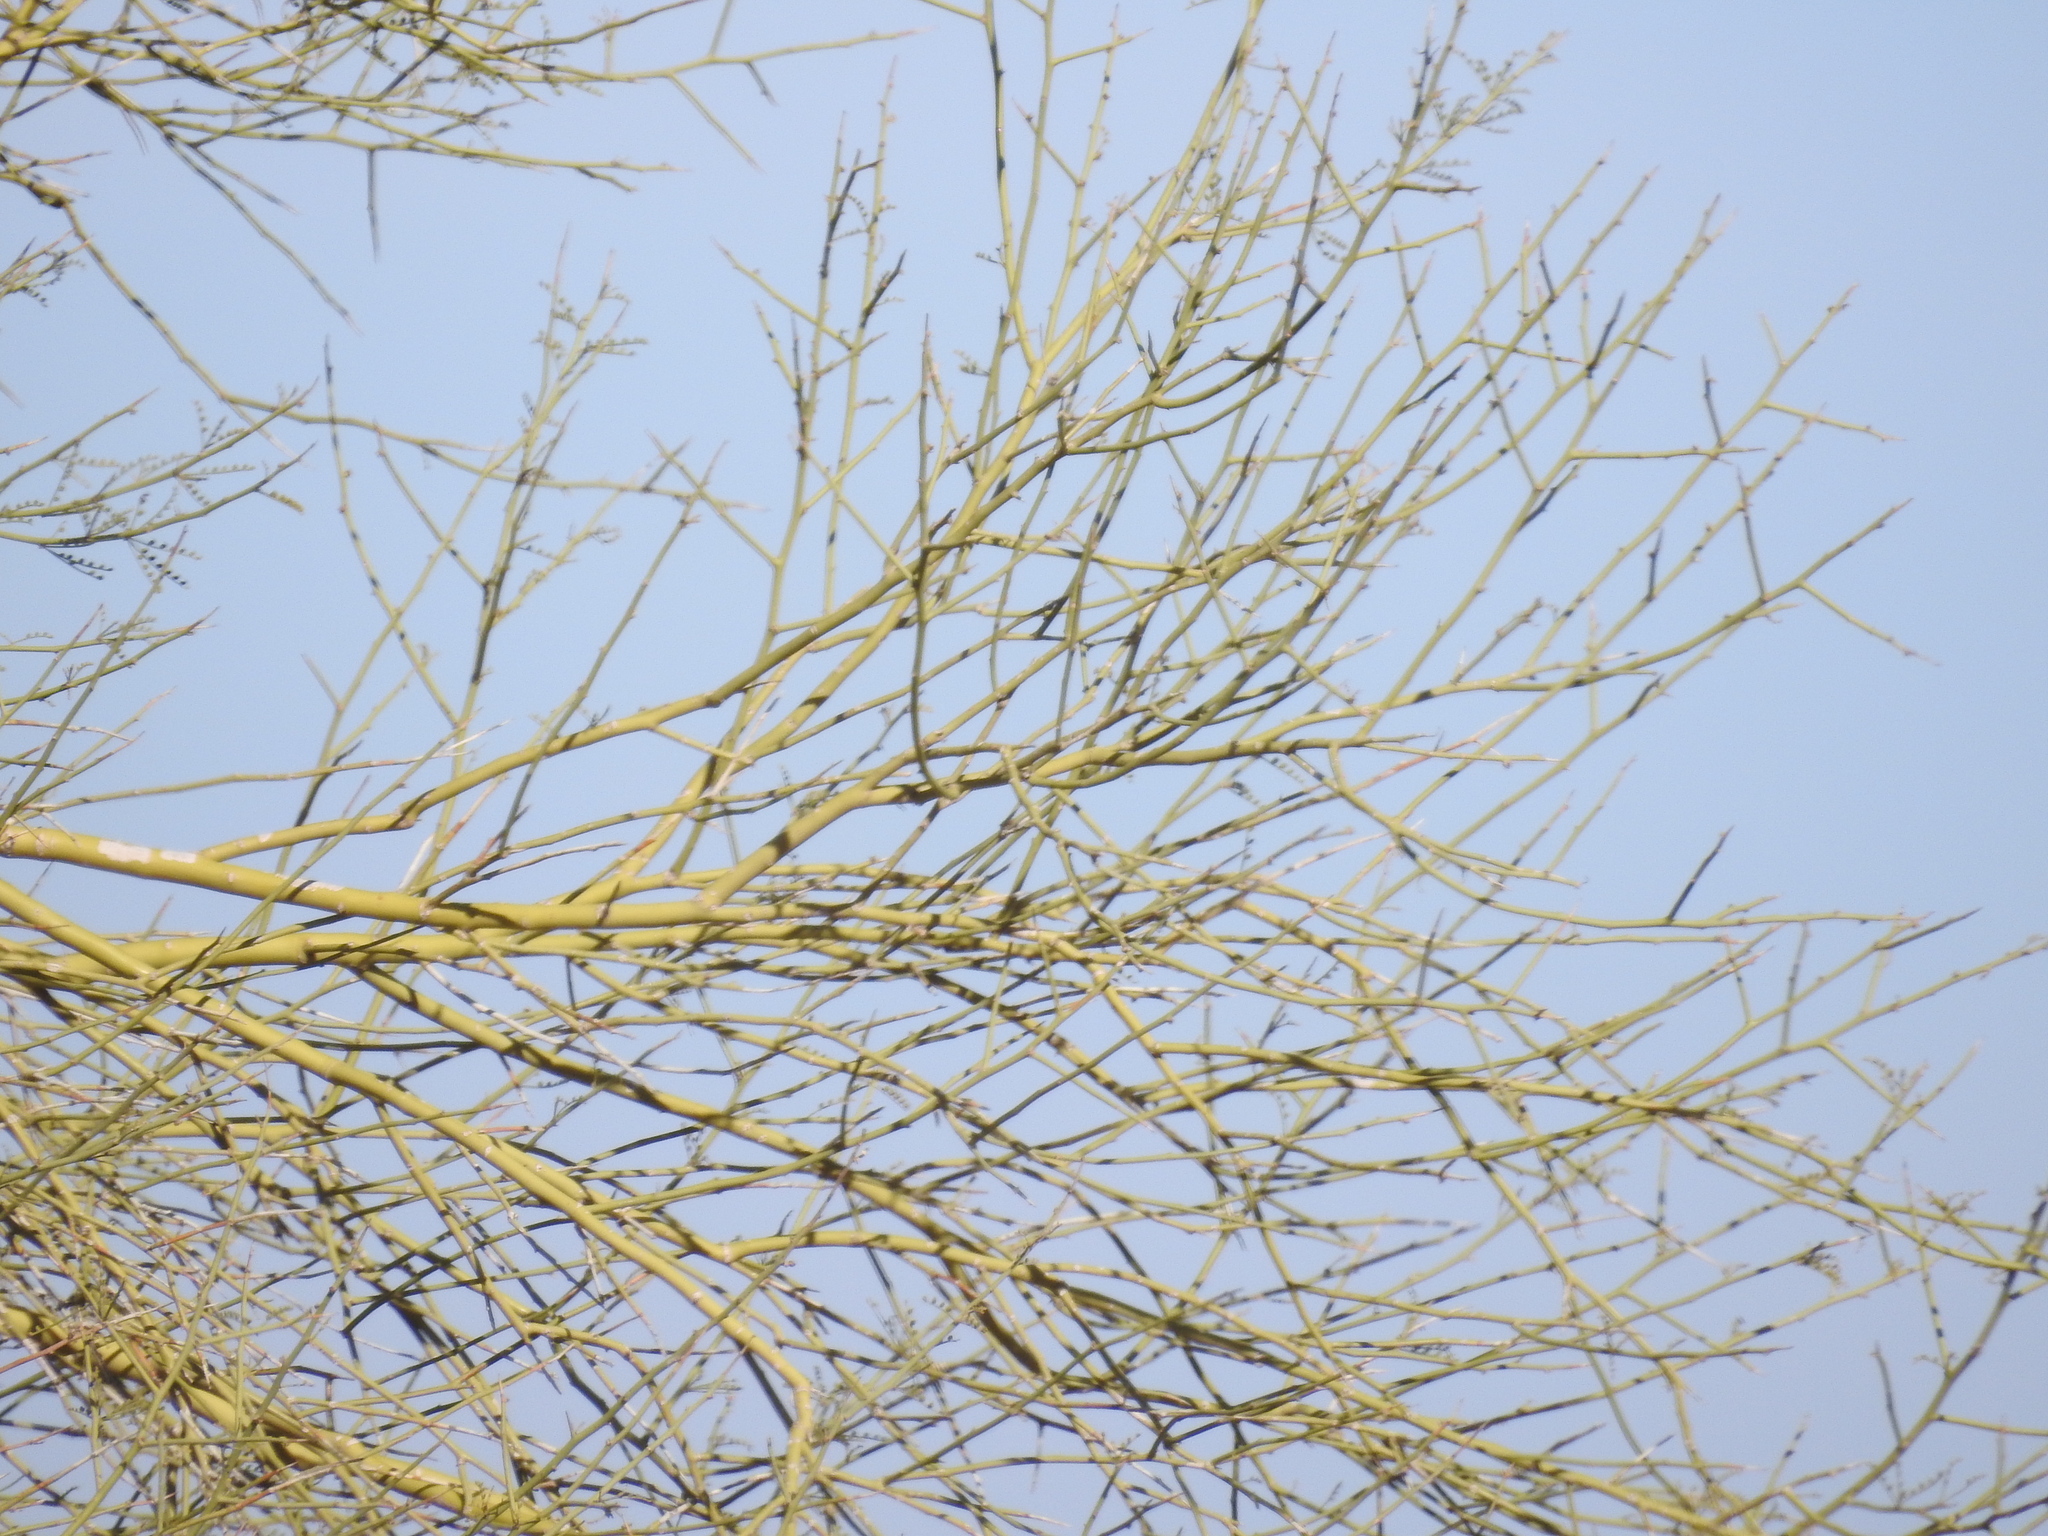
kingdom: Plantae
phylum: Tracheophyta
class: Magnoliopsida
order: Fabales
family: Fabaceae
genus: Parkinsonia
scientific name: Parkinsonia microphylla
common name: Yellow paloverde
